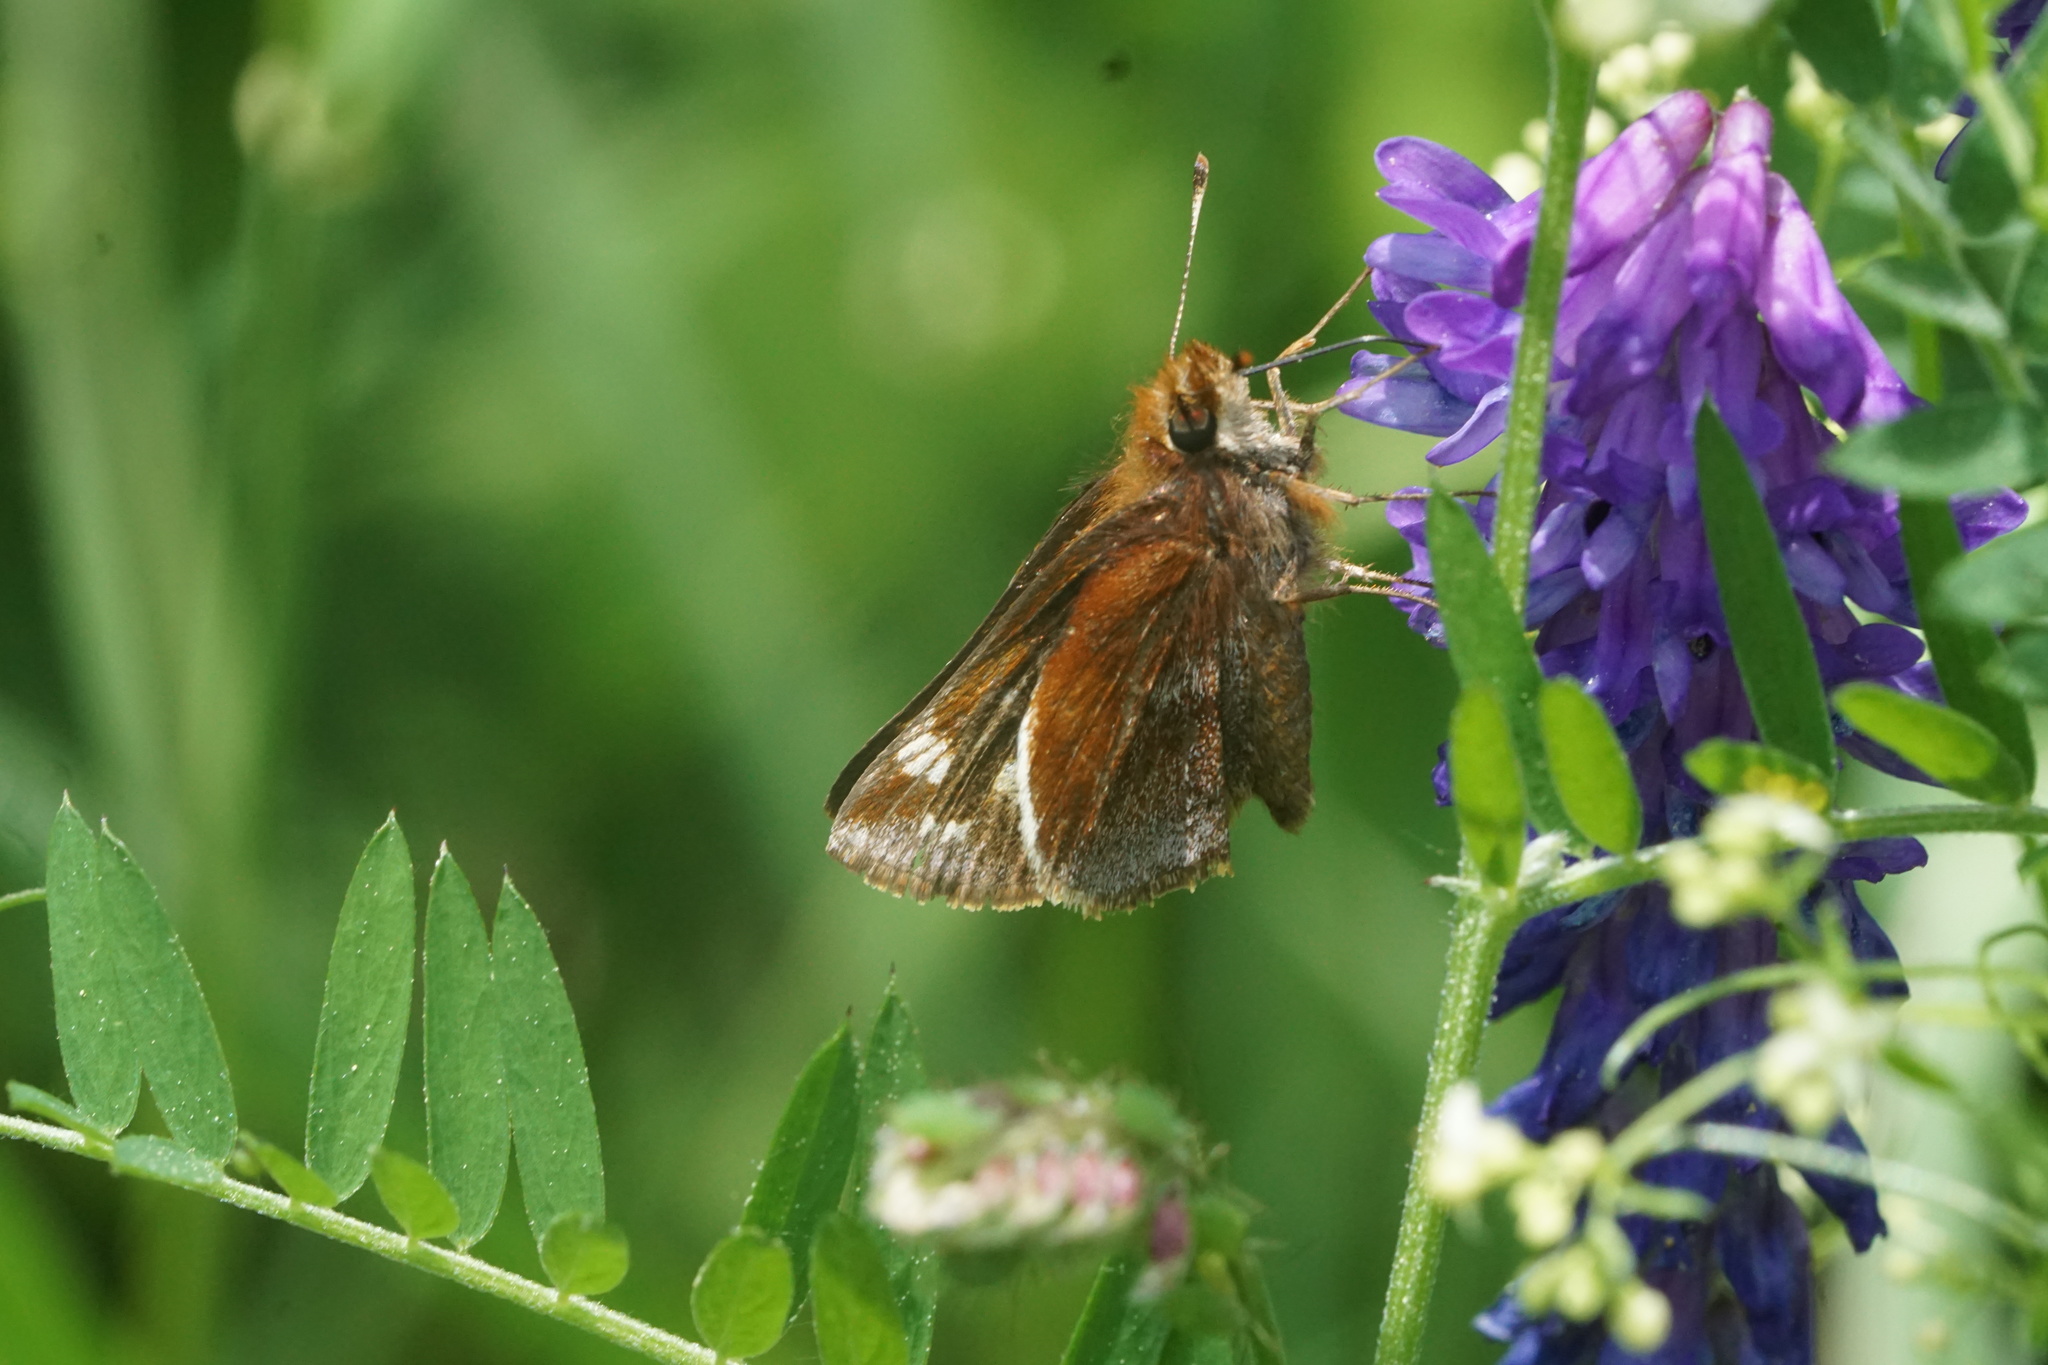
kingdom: Animalia
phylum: Arthropoda
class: Insecta
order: Lepidoptera
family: Hesperiidae
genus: Lon
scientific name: Lon zabulon
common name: Zabulon skipper
